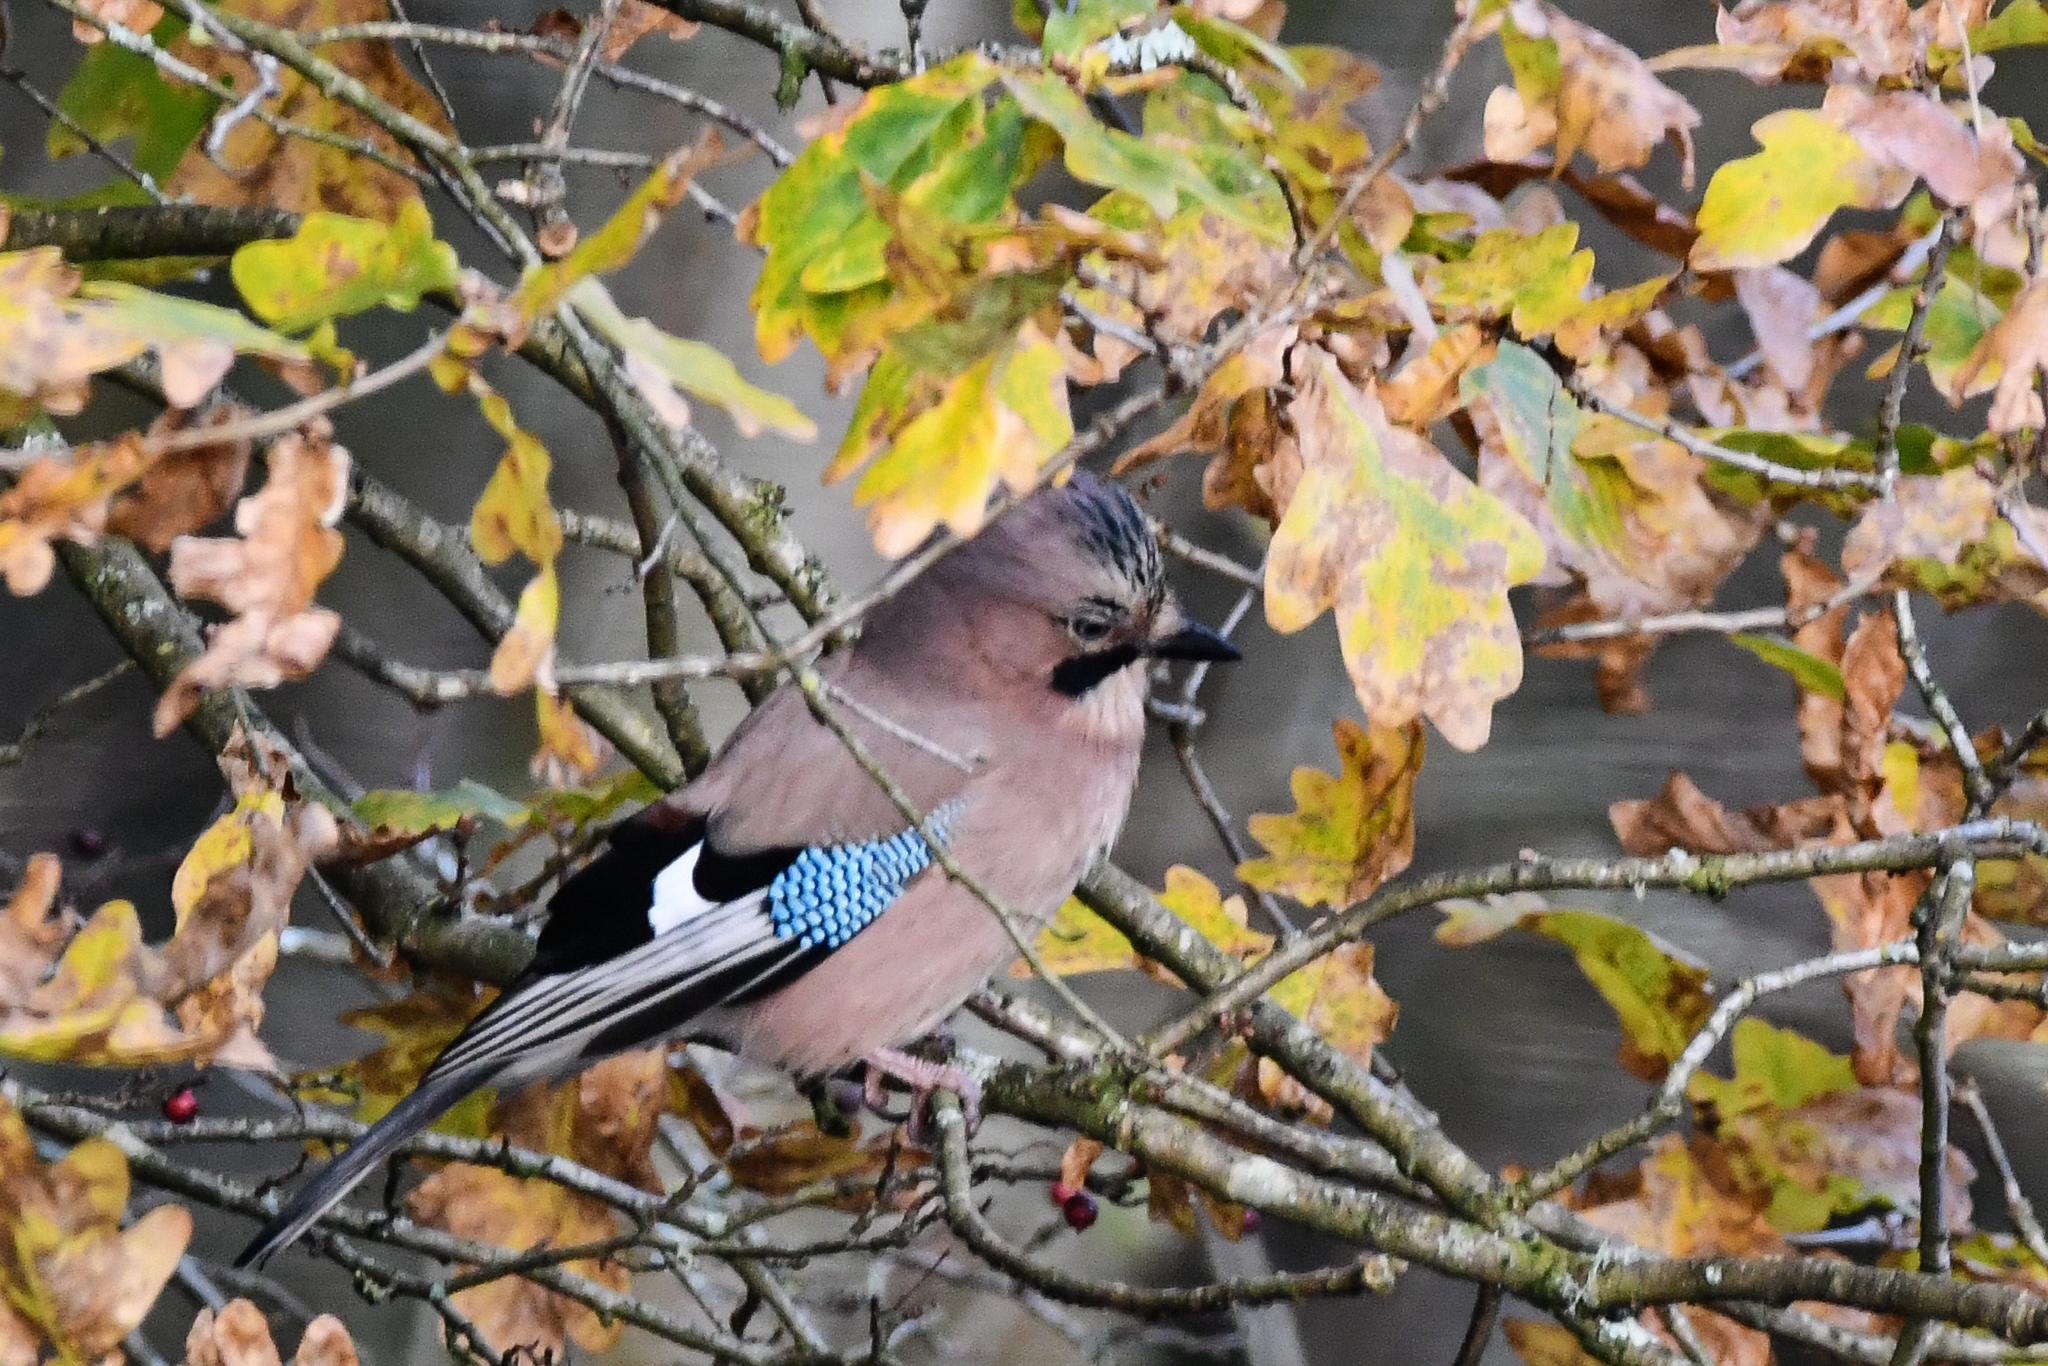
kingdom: Animalia
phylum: Chordata
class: Aves
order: Passeriformes
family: Corvidae
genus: Garrulus
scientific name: Garrulus glandarius
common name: Eurasian jay
